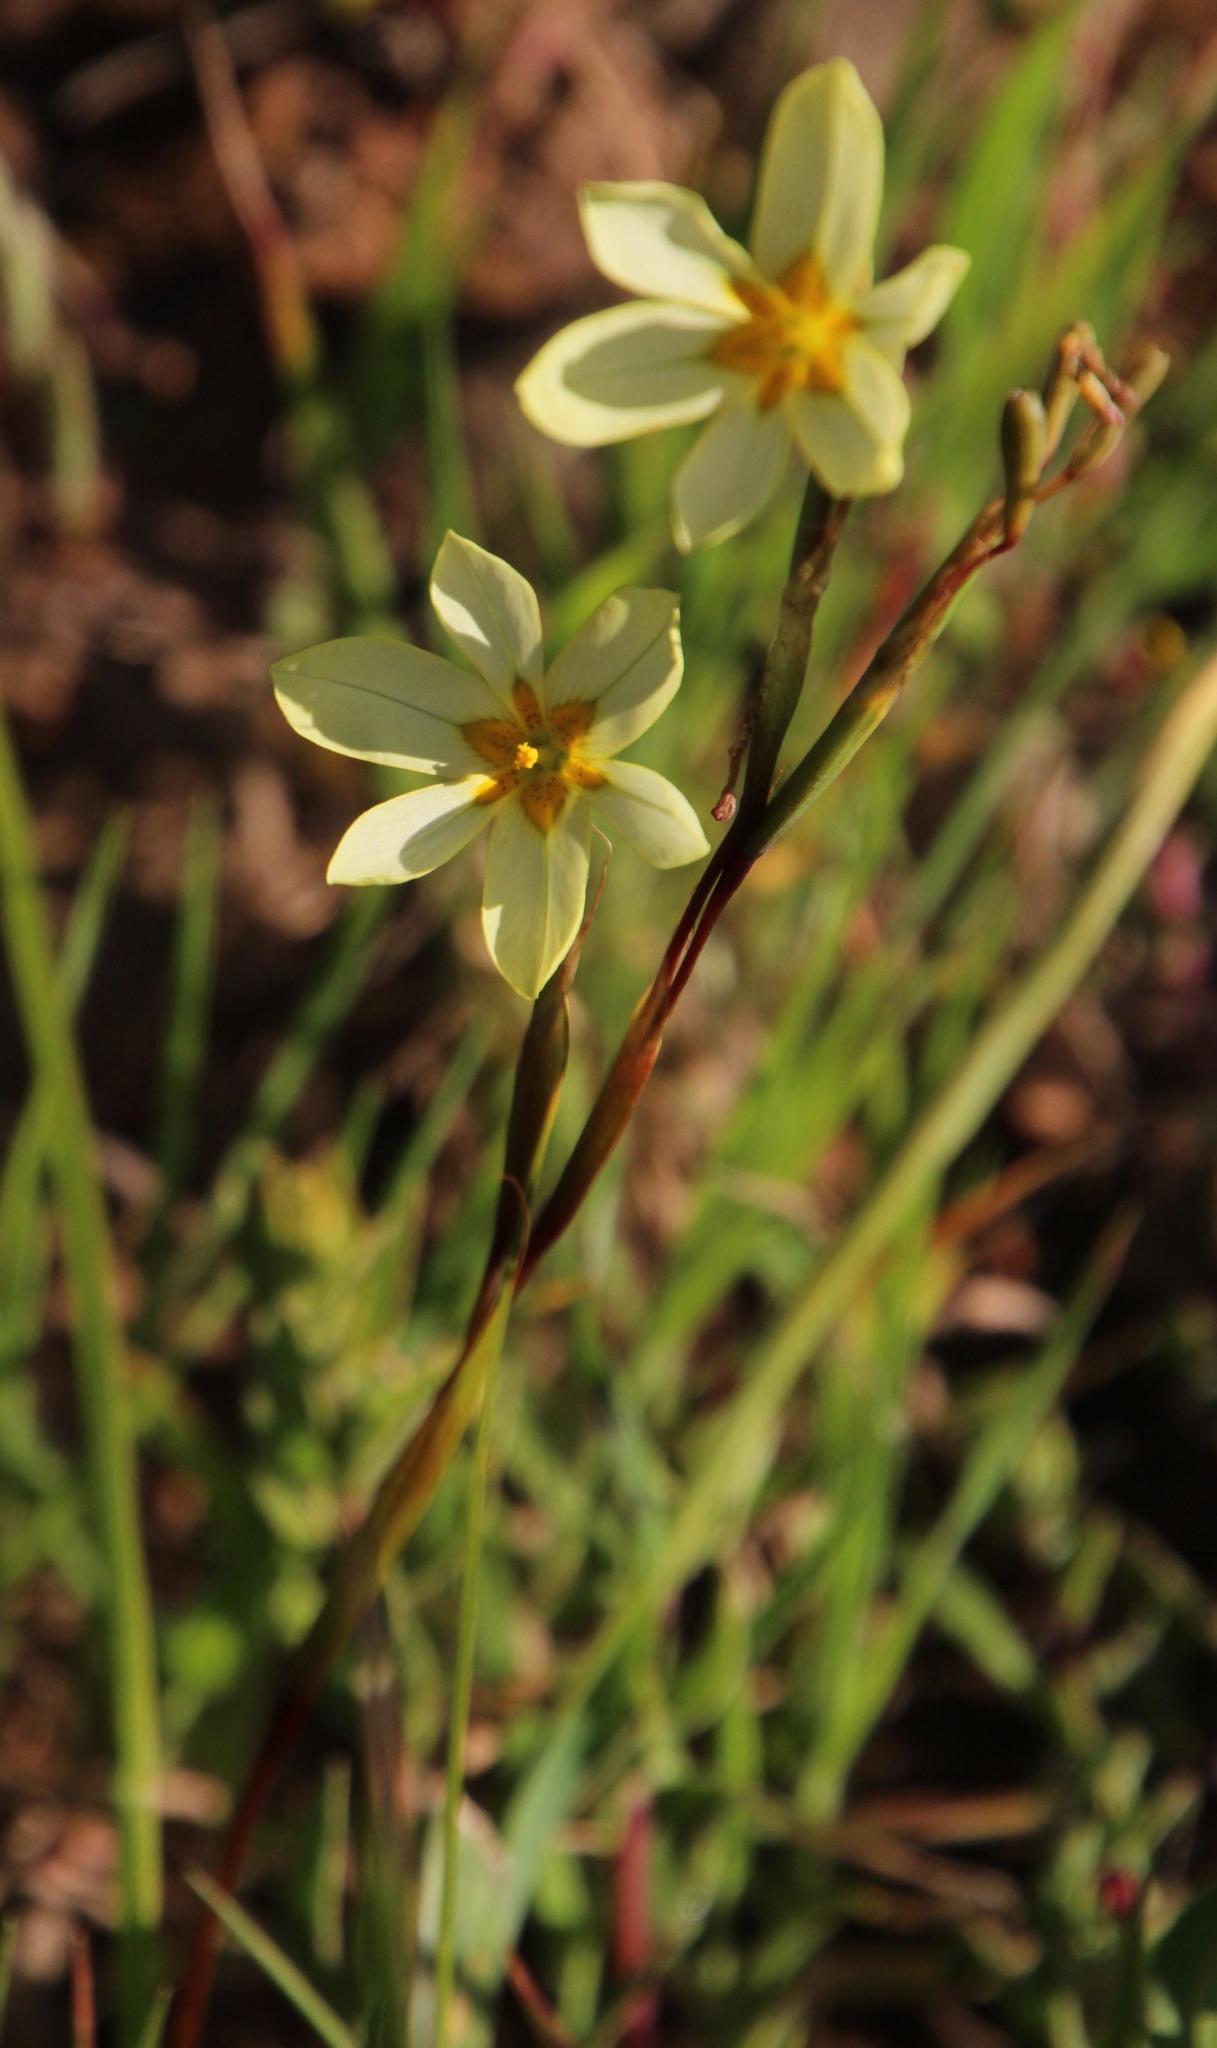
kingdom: Plantae
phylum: Tracheophyta
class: Liliopsida
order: Asparagales
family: Iridaceae
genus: Moraea
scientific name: Moraea miniata
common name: Two-leaf cape-tulip
